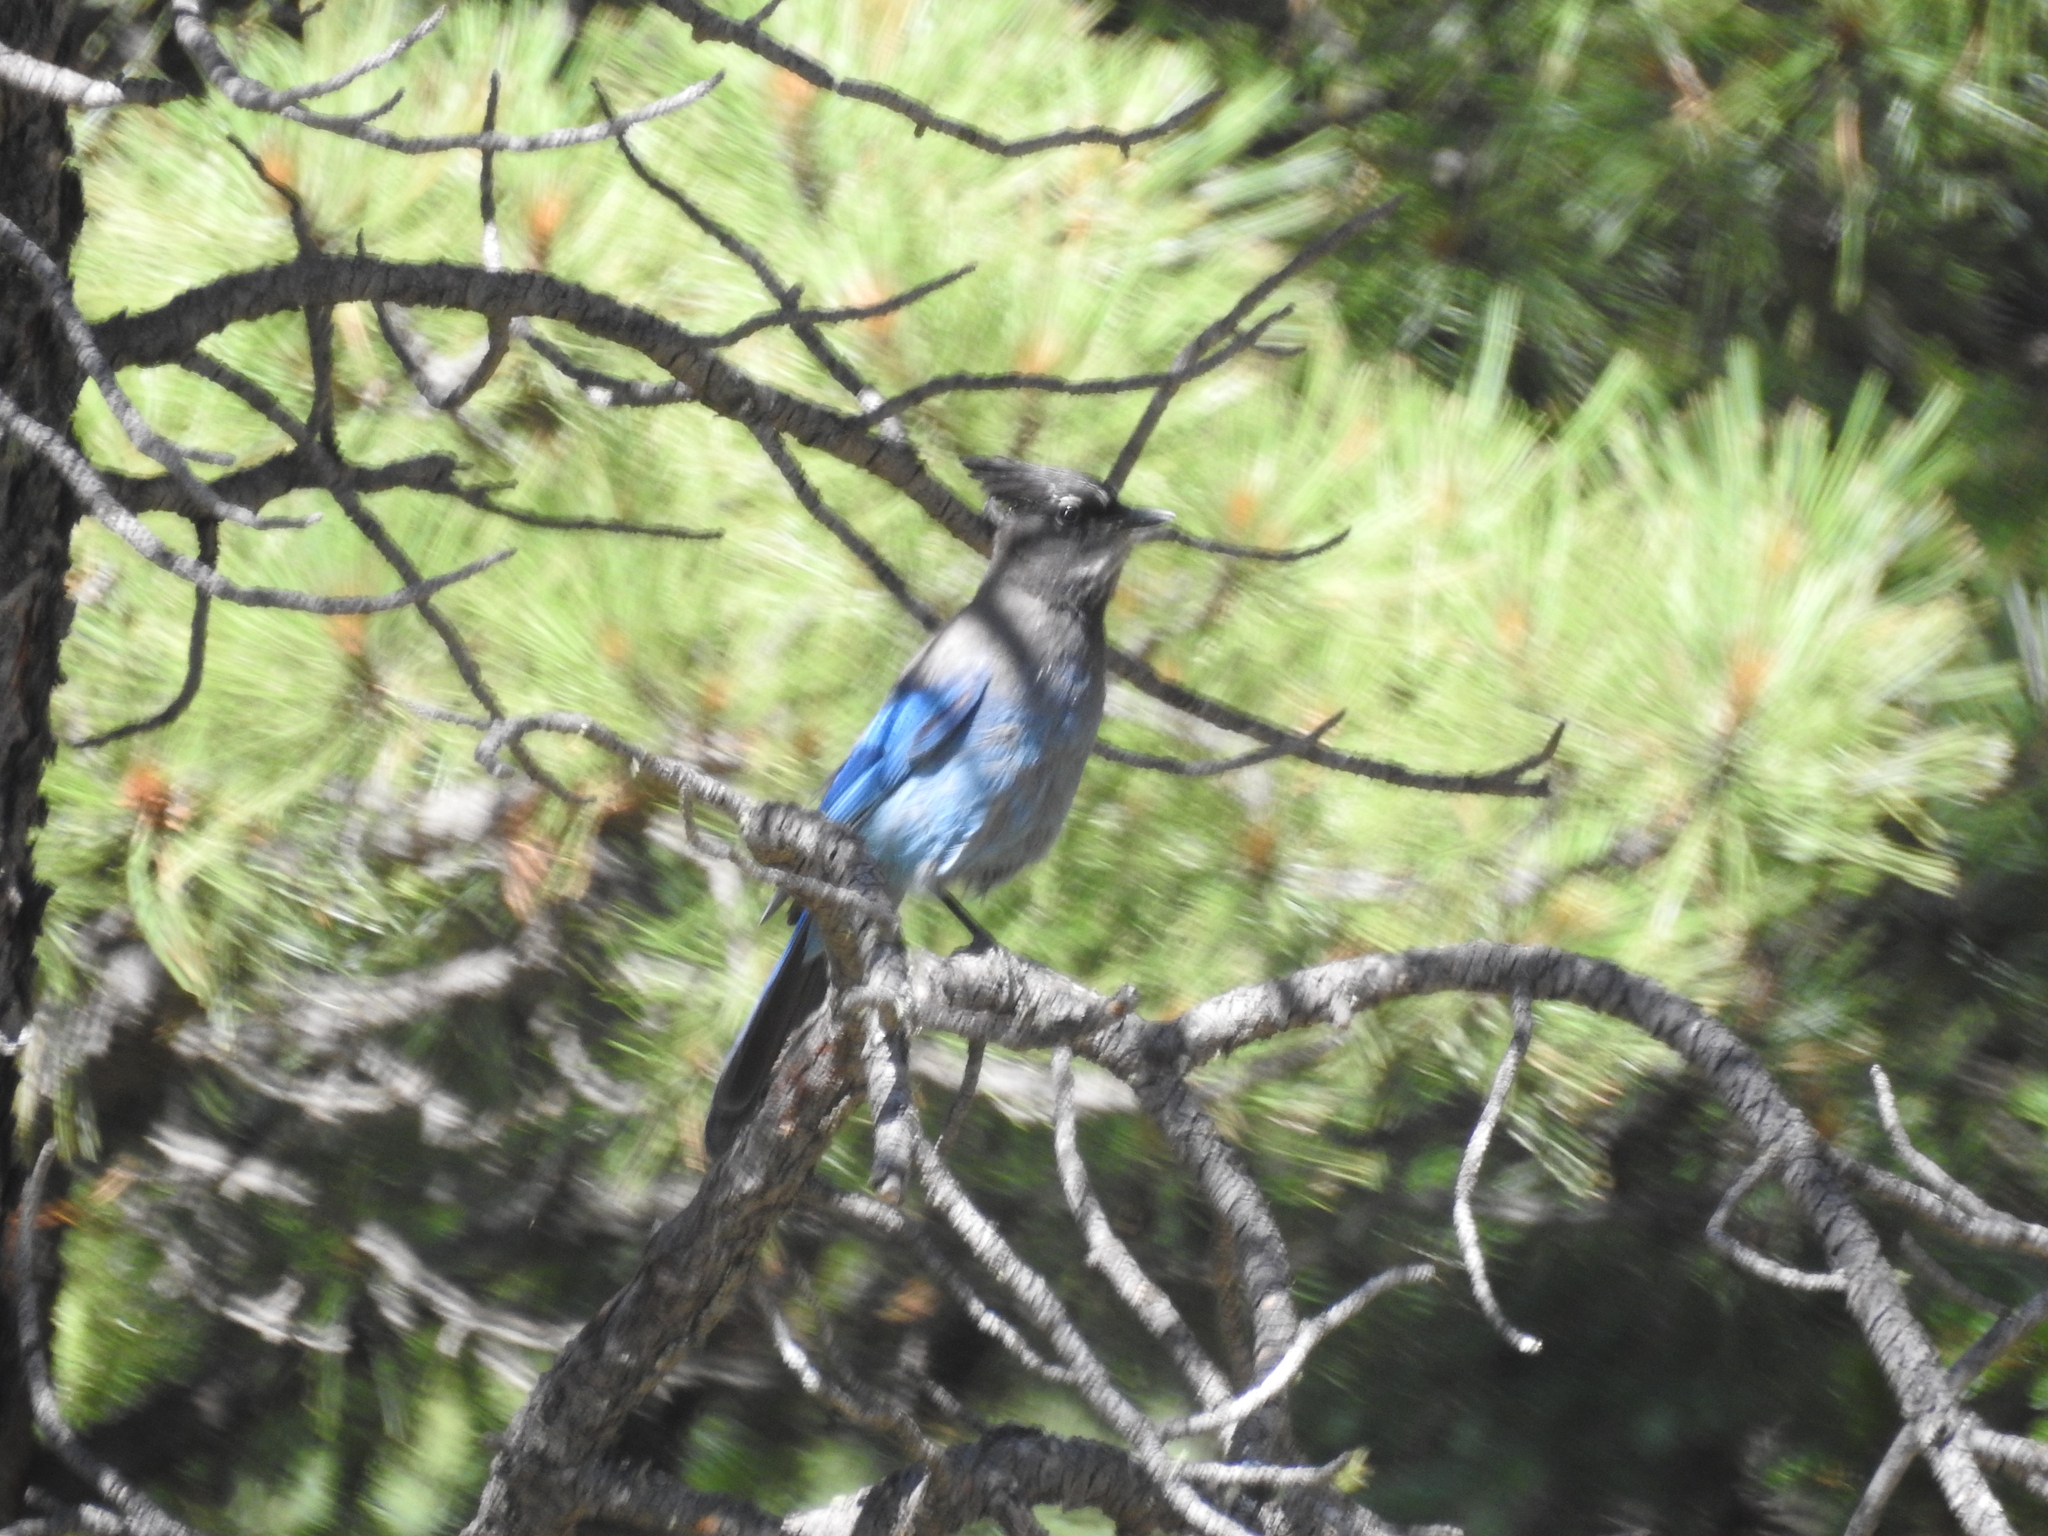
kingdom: Animalia
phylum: Chordata
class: Aves
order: Passeriformes
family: Corvidae
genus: Cyanocitta
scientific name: Cyanocitta stelleri
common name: Steller's jay
